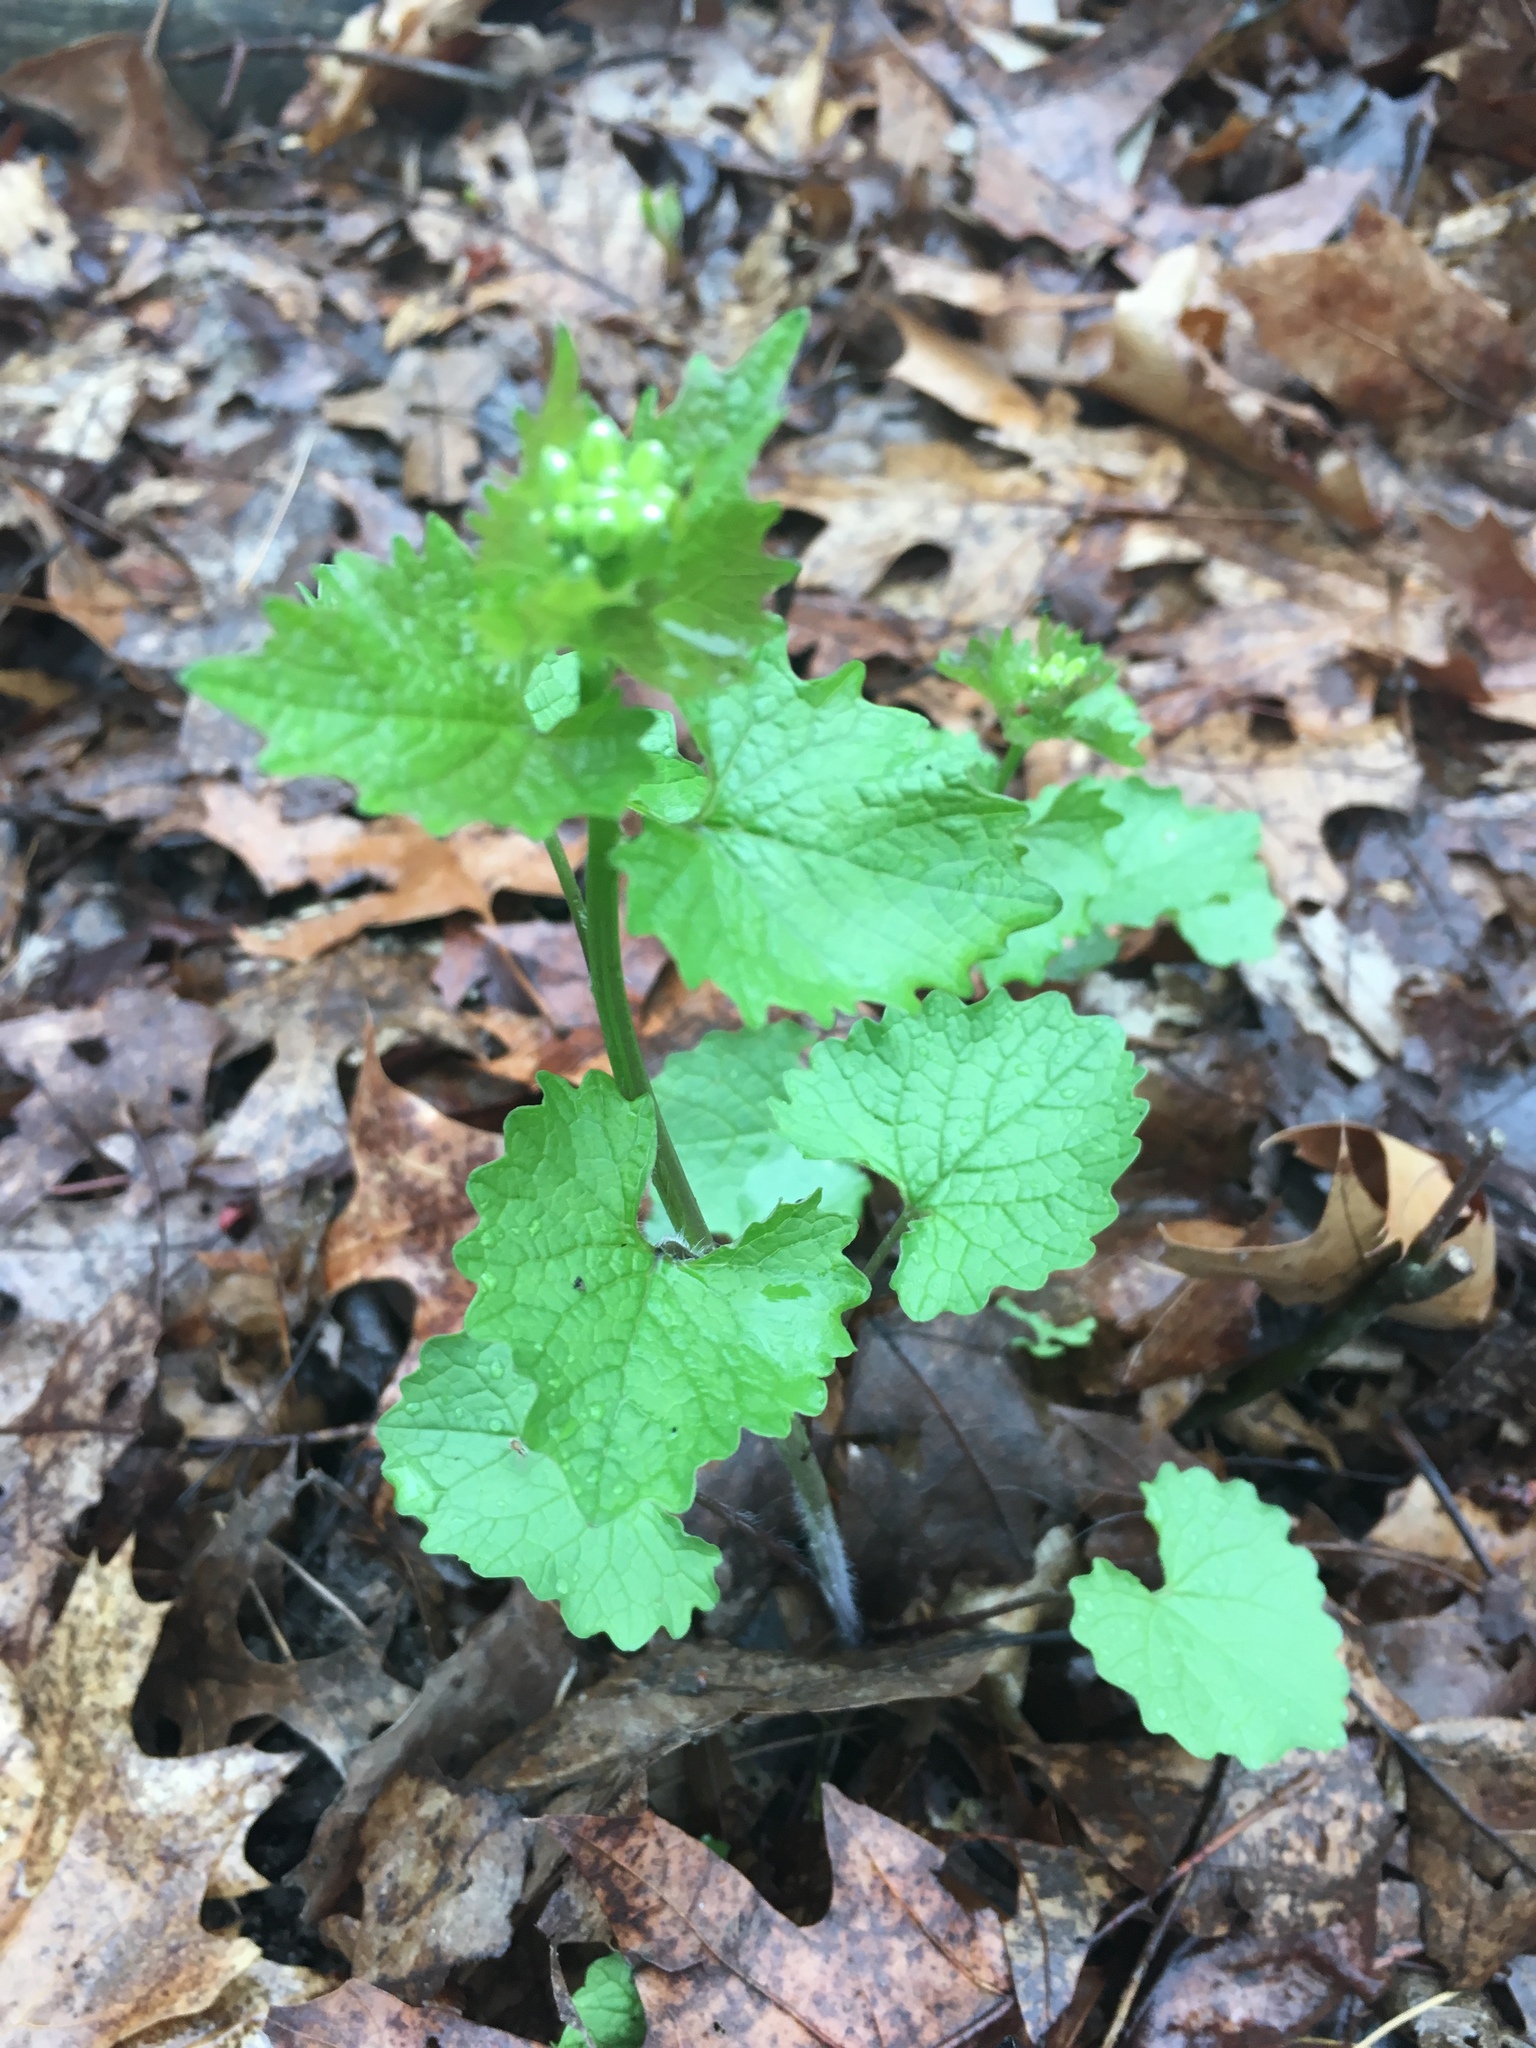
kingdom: Plantae
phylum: Tracheophyta
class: Magnoliopsida
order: Brassicales
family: Brassicaceae
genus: Alliaria
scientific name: Alliaria petiolata
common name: Garlic mustard
